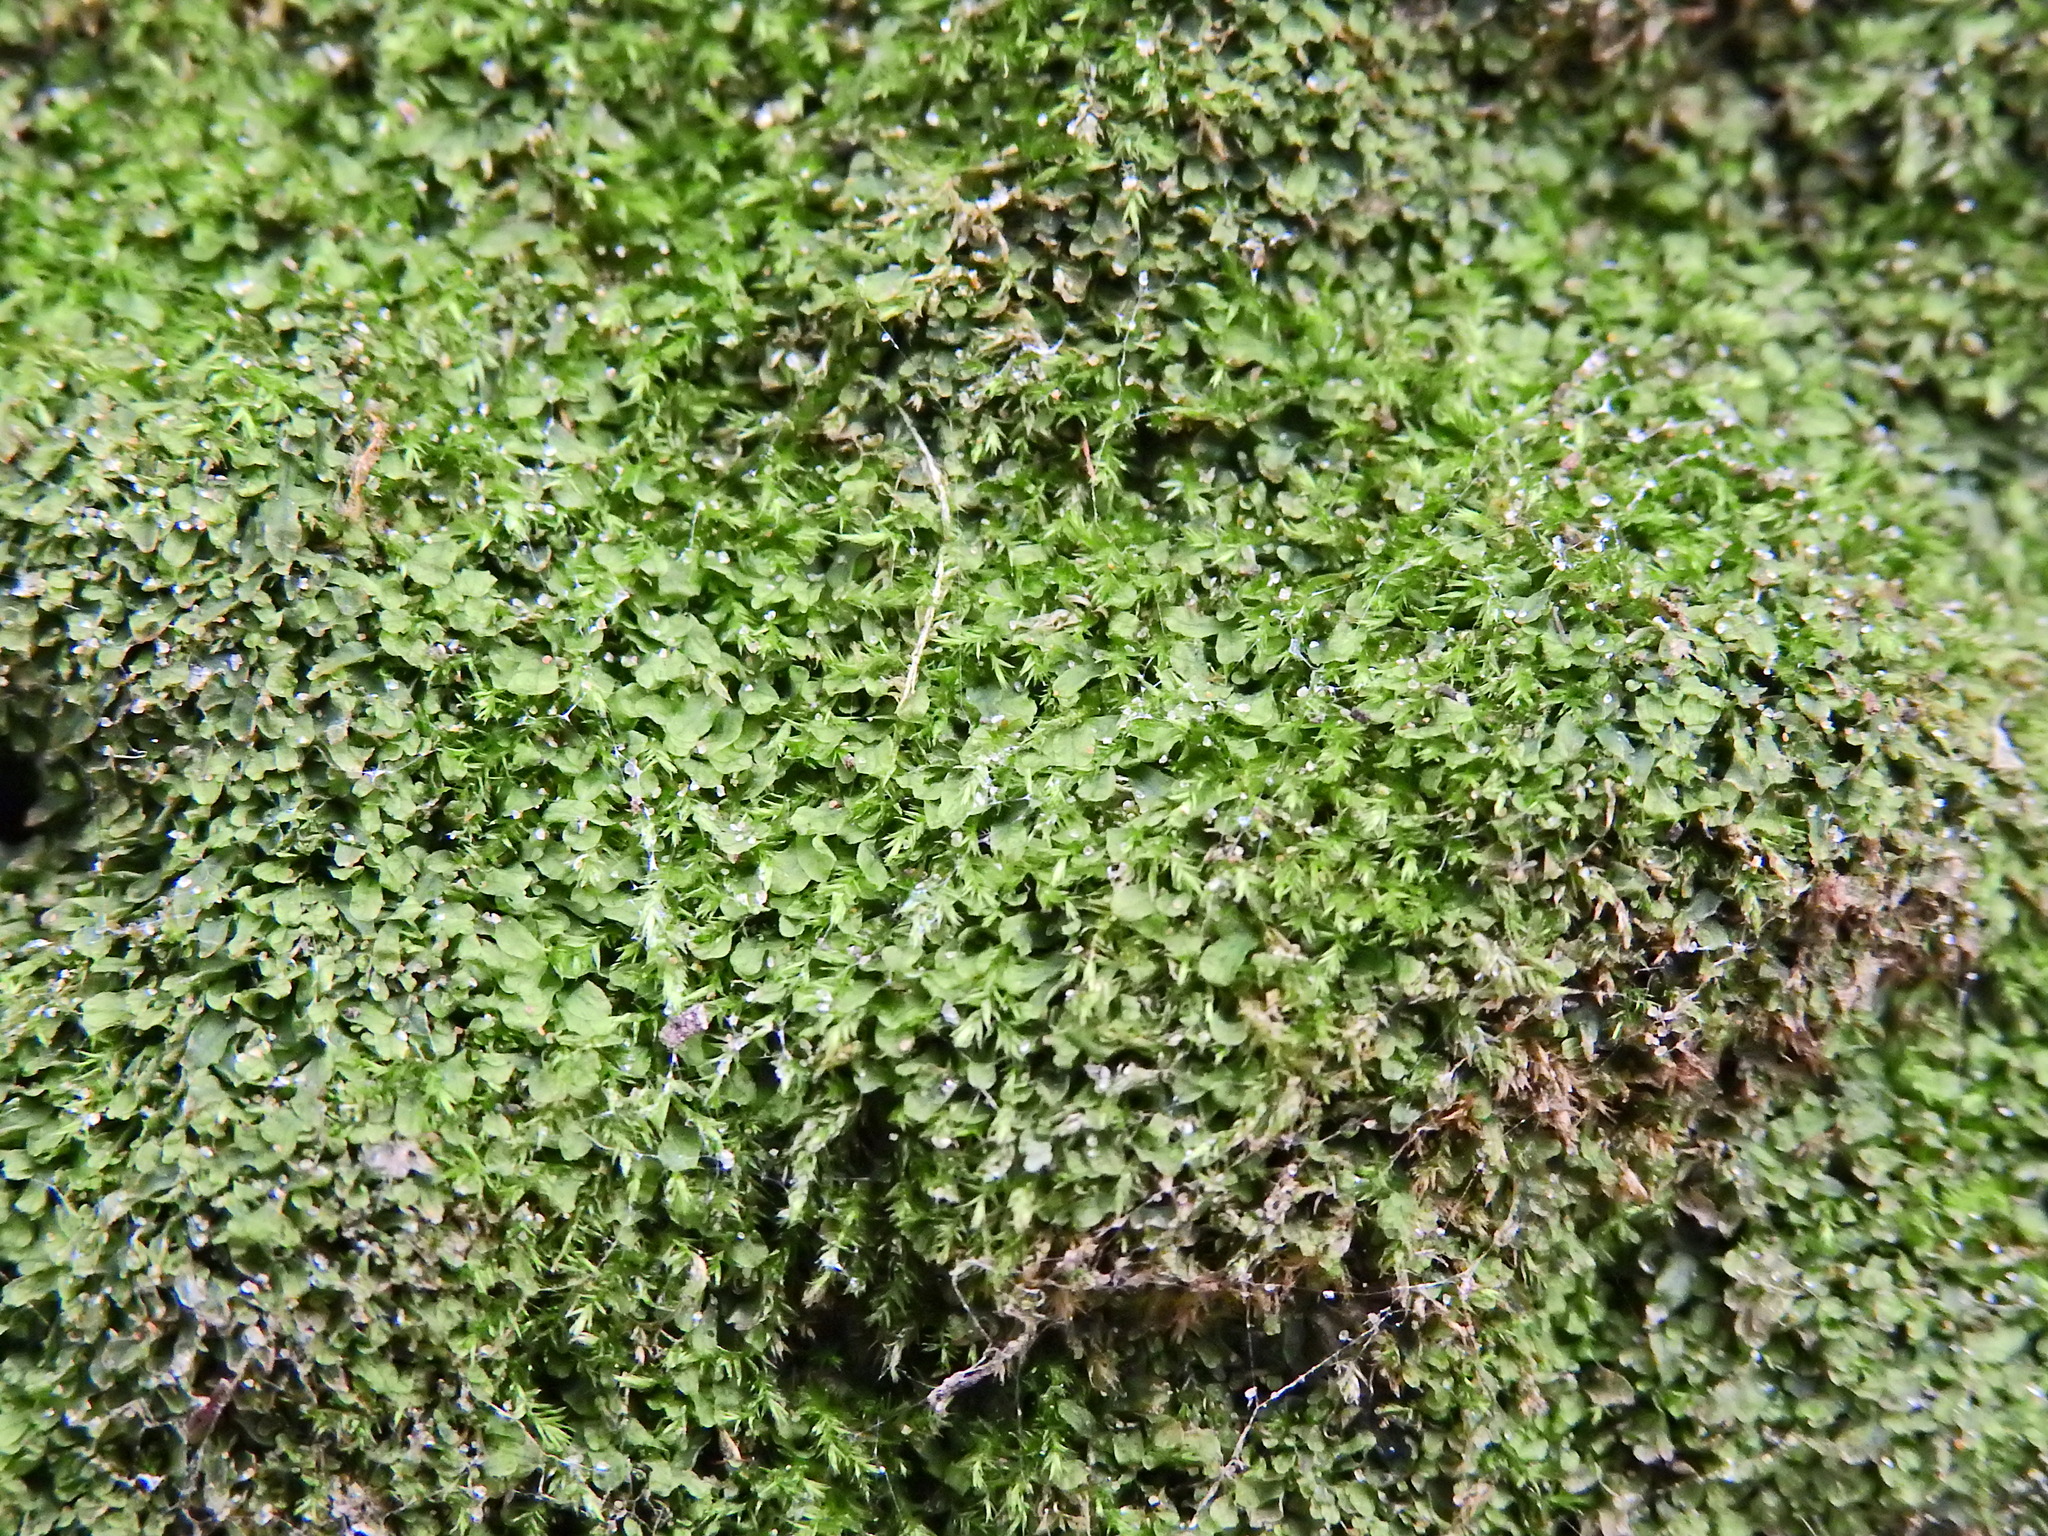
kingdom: Plantae
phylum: Marchantiophyta
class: Jungermanniopsida
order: Metzgeriales
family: Metzgeriaceae
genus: Metzgeria
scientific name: Metzgeria furcata
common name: Forked veilwort
